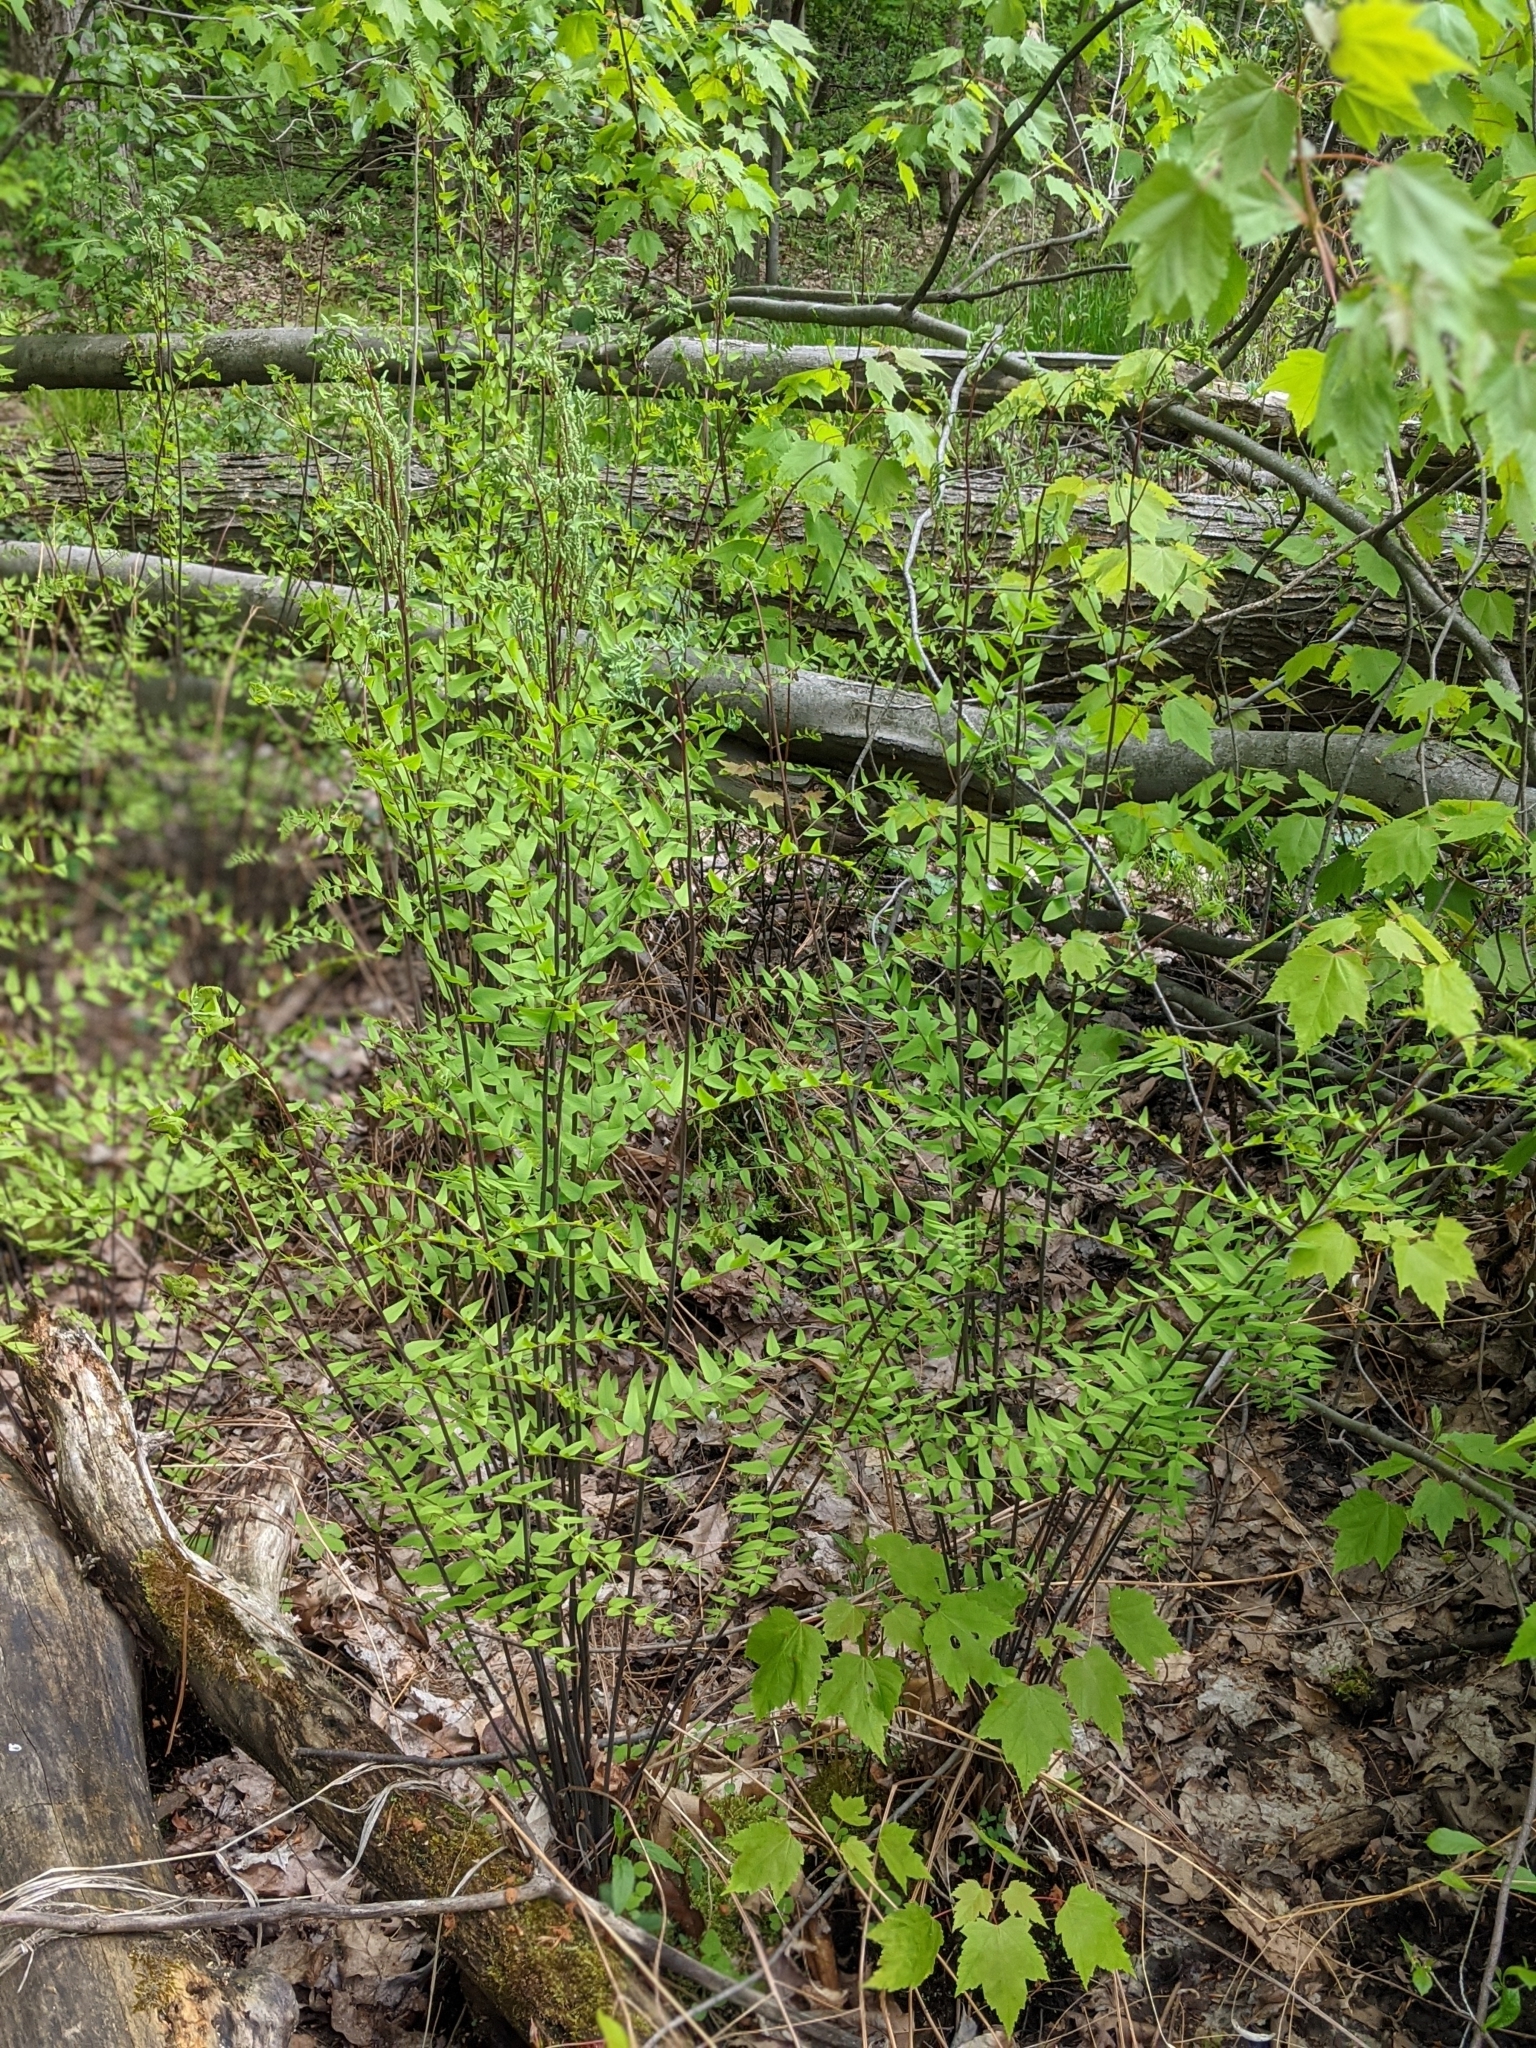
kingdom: Plantae
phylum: Tracheophyta
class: Polypodiopsida
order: Osmundales
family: Osmundaceae
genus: Osmunda
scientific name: Osmunda spectabilis
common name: American royal fern
